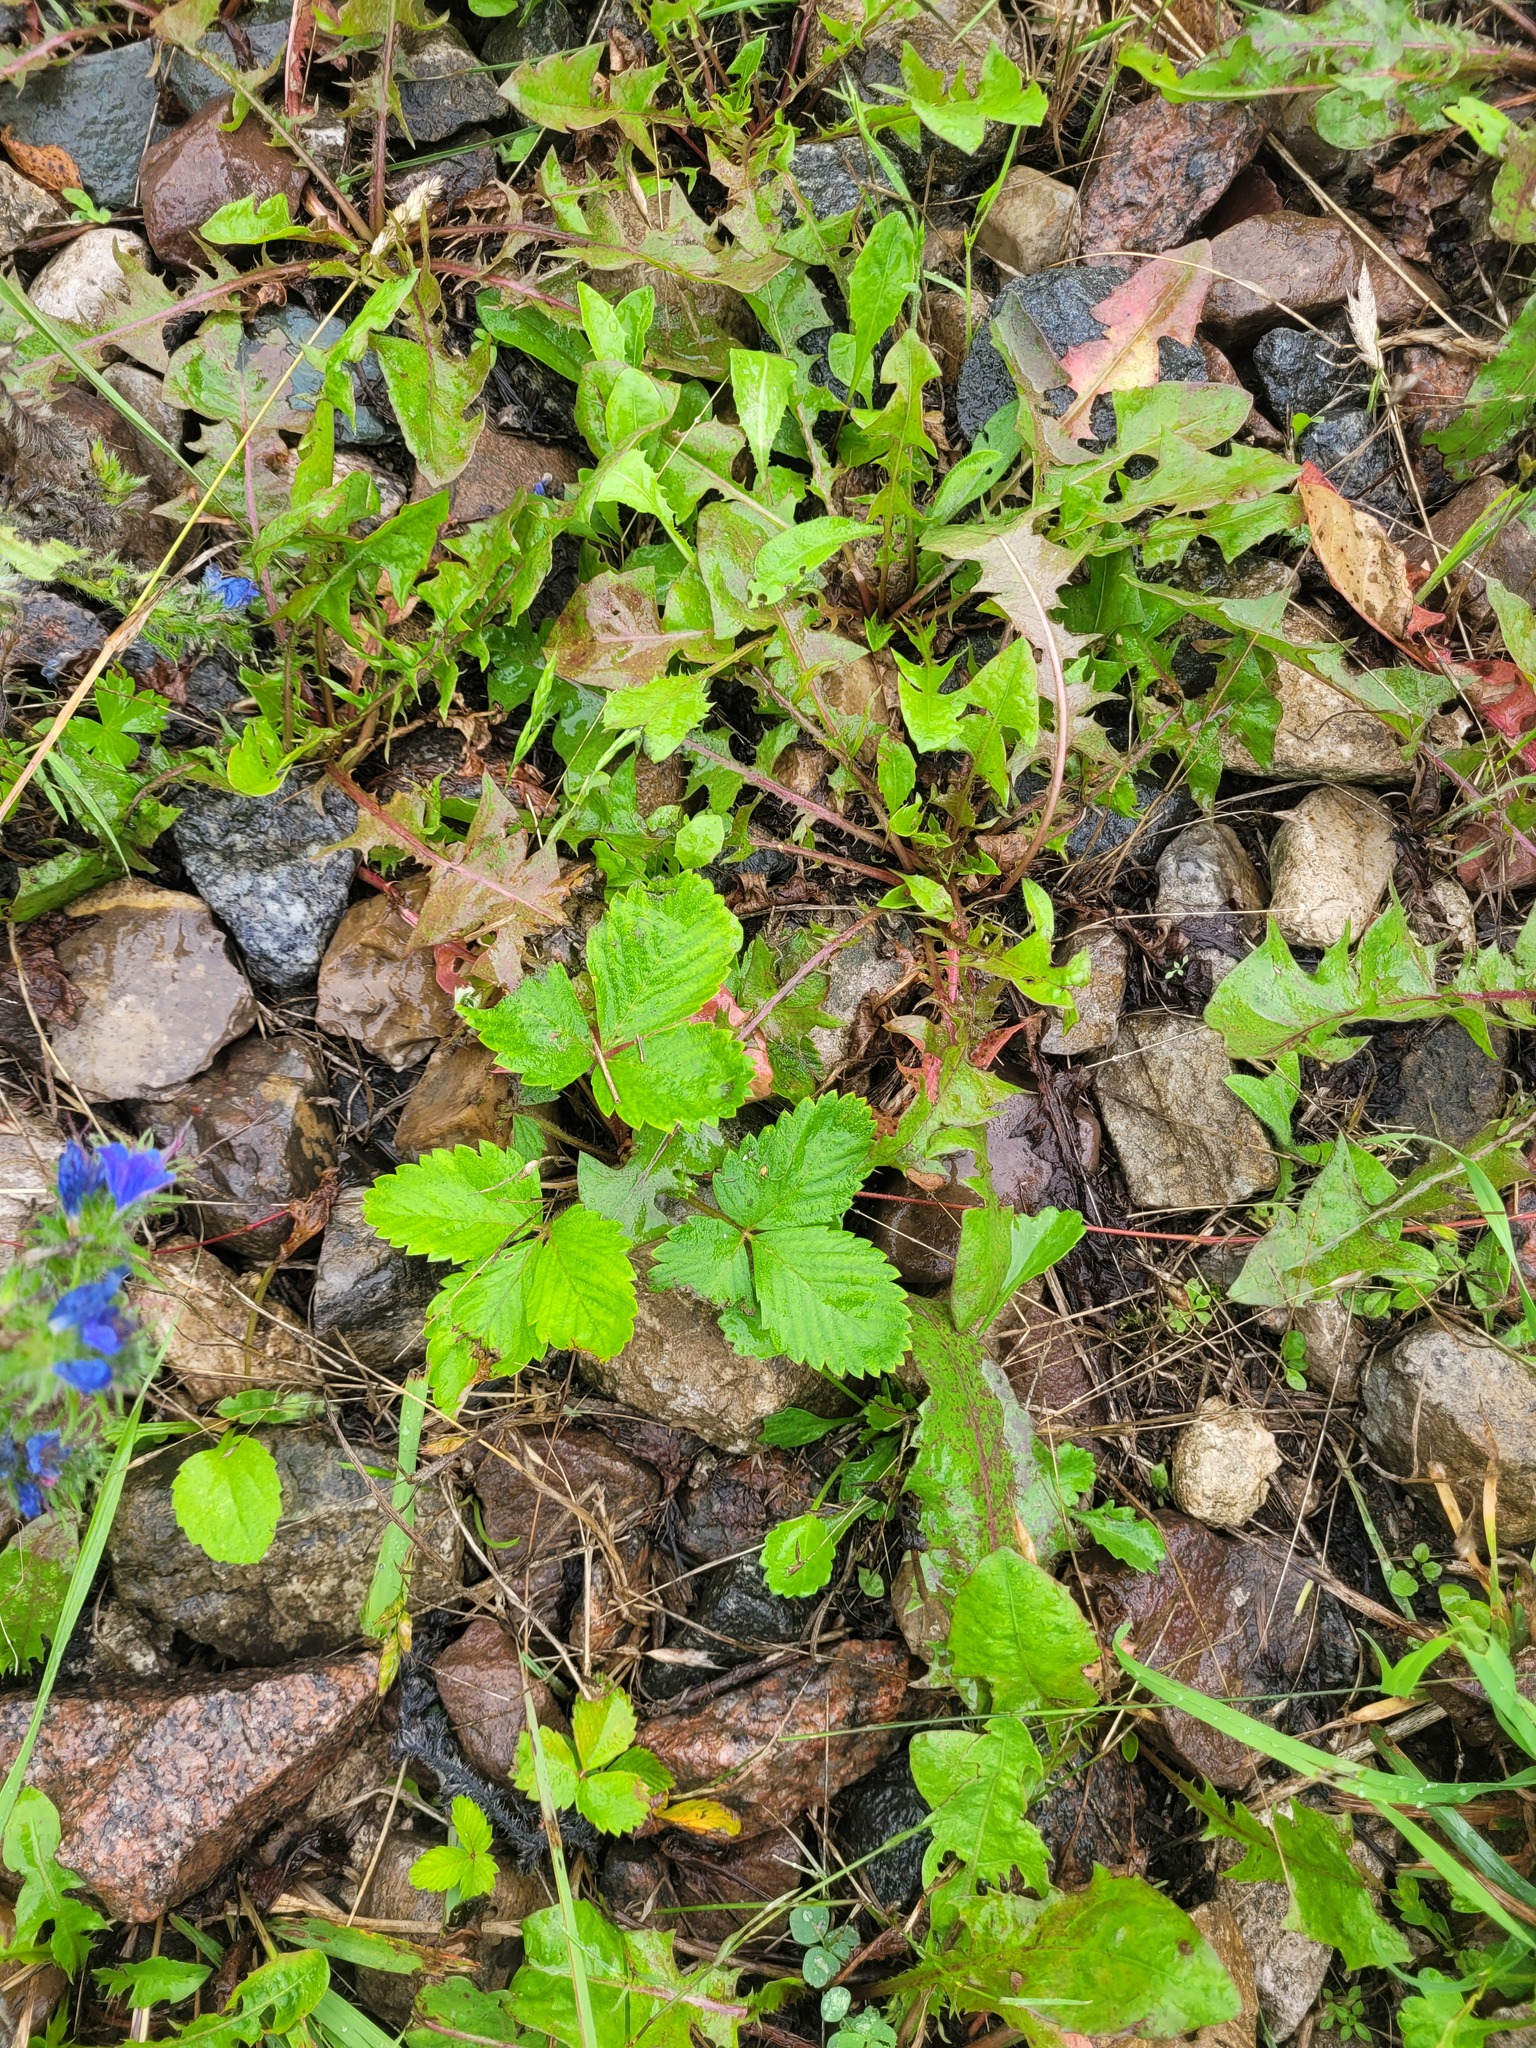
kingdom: Plantae
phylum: Tracheophyta
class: Magnoliopsida
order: Rosales
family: Rosaceae
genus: Fragaria
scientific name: Fragaria vesca
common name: Wild strawberry
